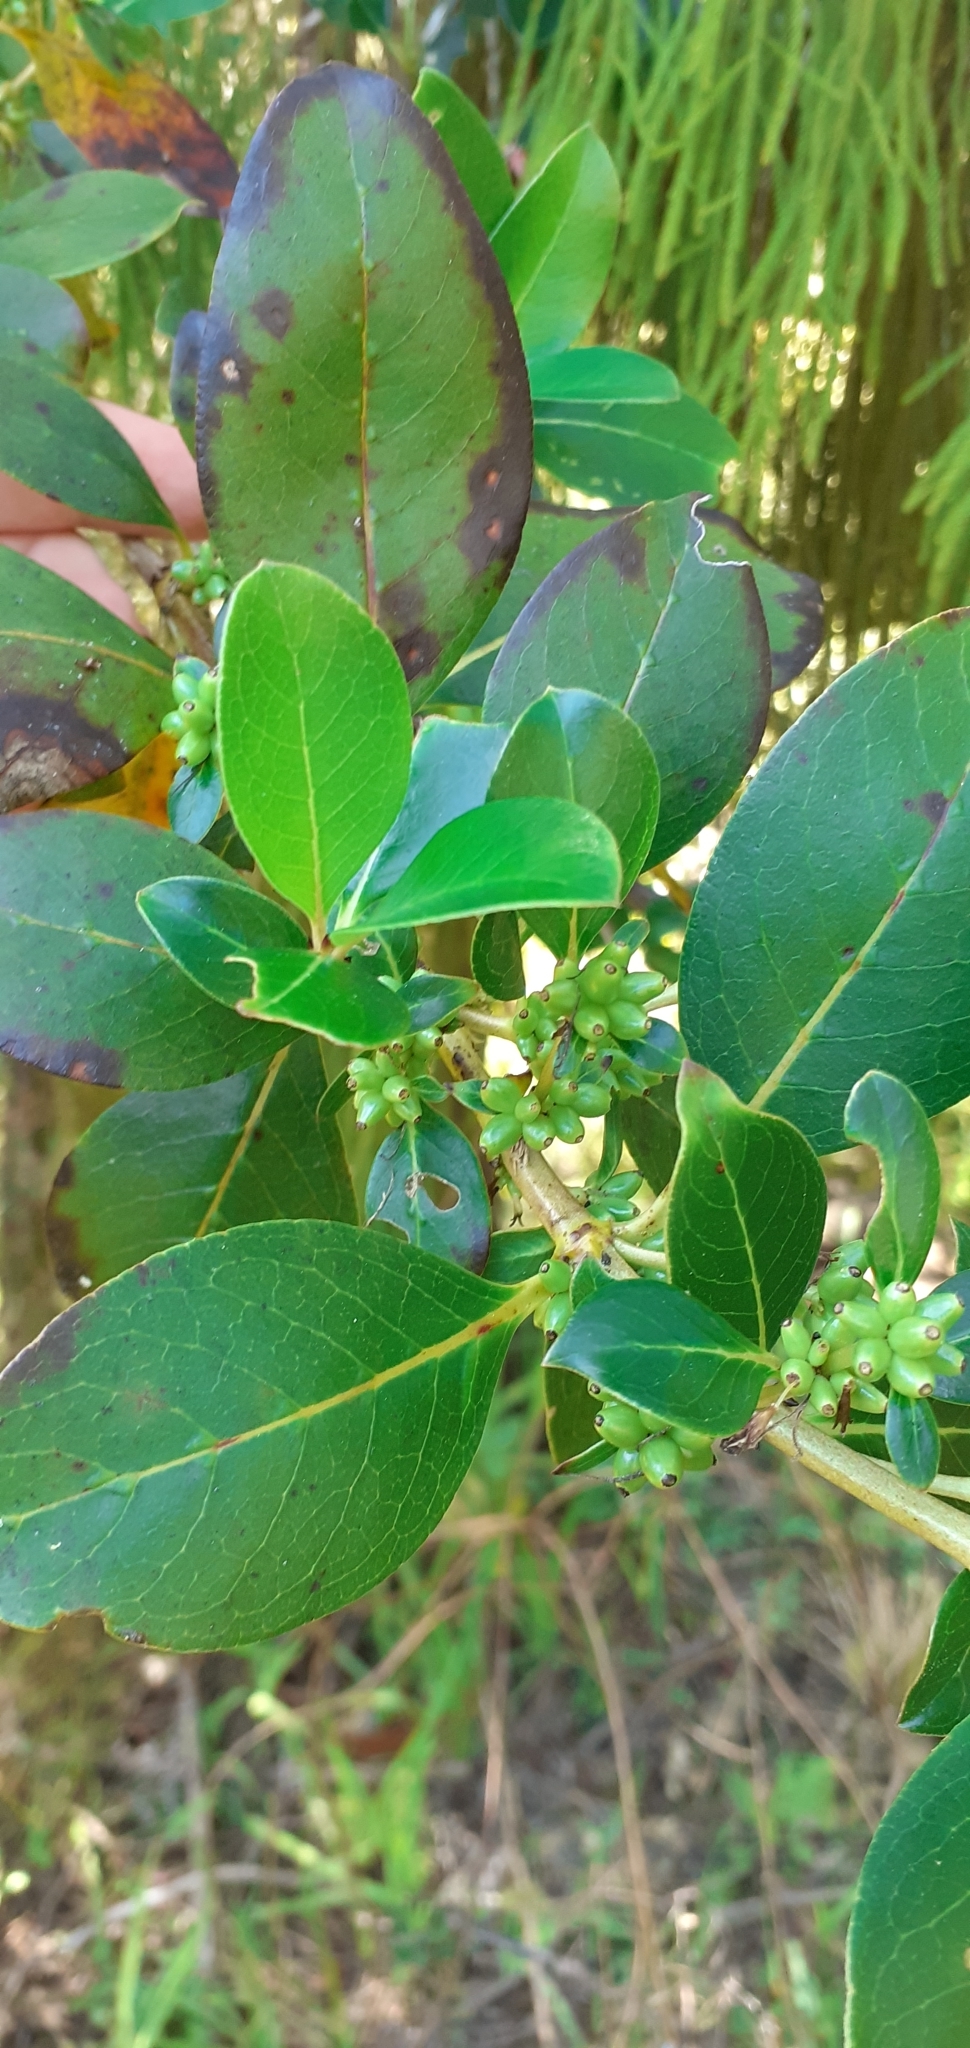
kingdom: Plantae
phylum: Tracheophyta
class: Magnoliopsida
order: Gentianales
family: Rubiaceae
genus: Coprosma
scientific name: Coprosma robusta
